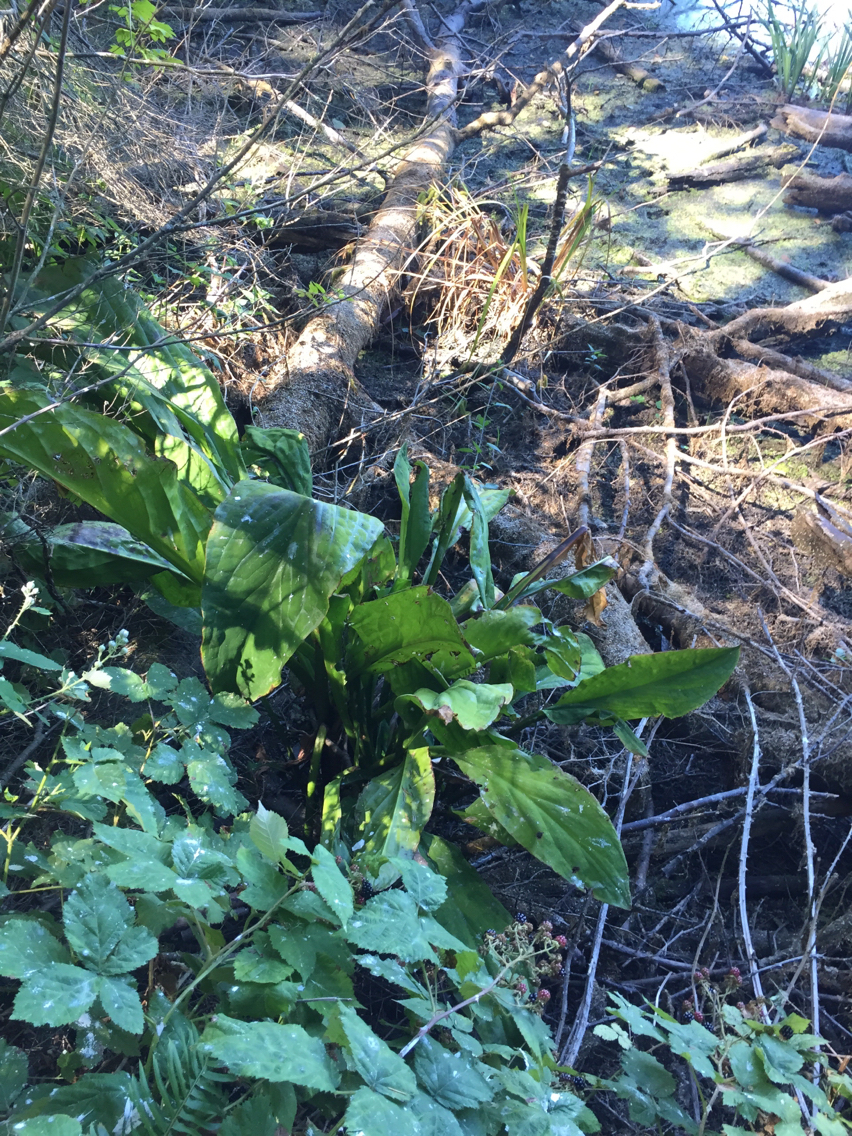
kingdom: Plantae
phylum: Tracheophyta
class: Liliopsida
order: Alismatales
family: Araceae
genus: Lysichiton
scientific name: Lysichiton americanus
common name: American skunk cabbage
